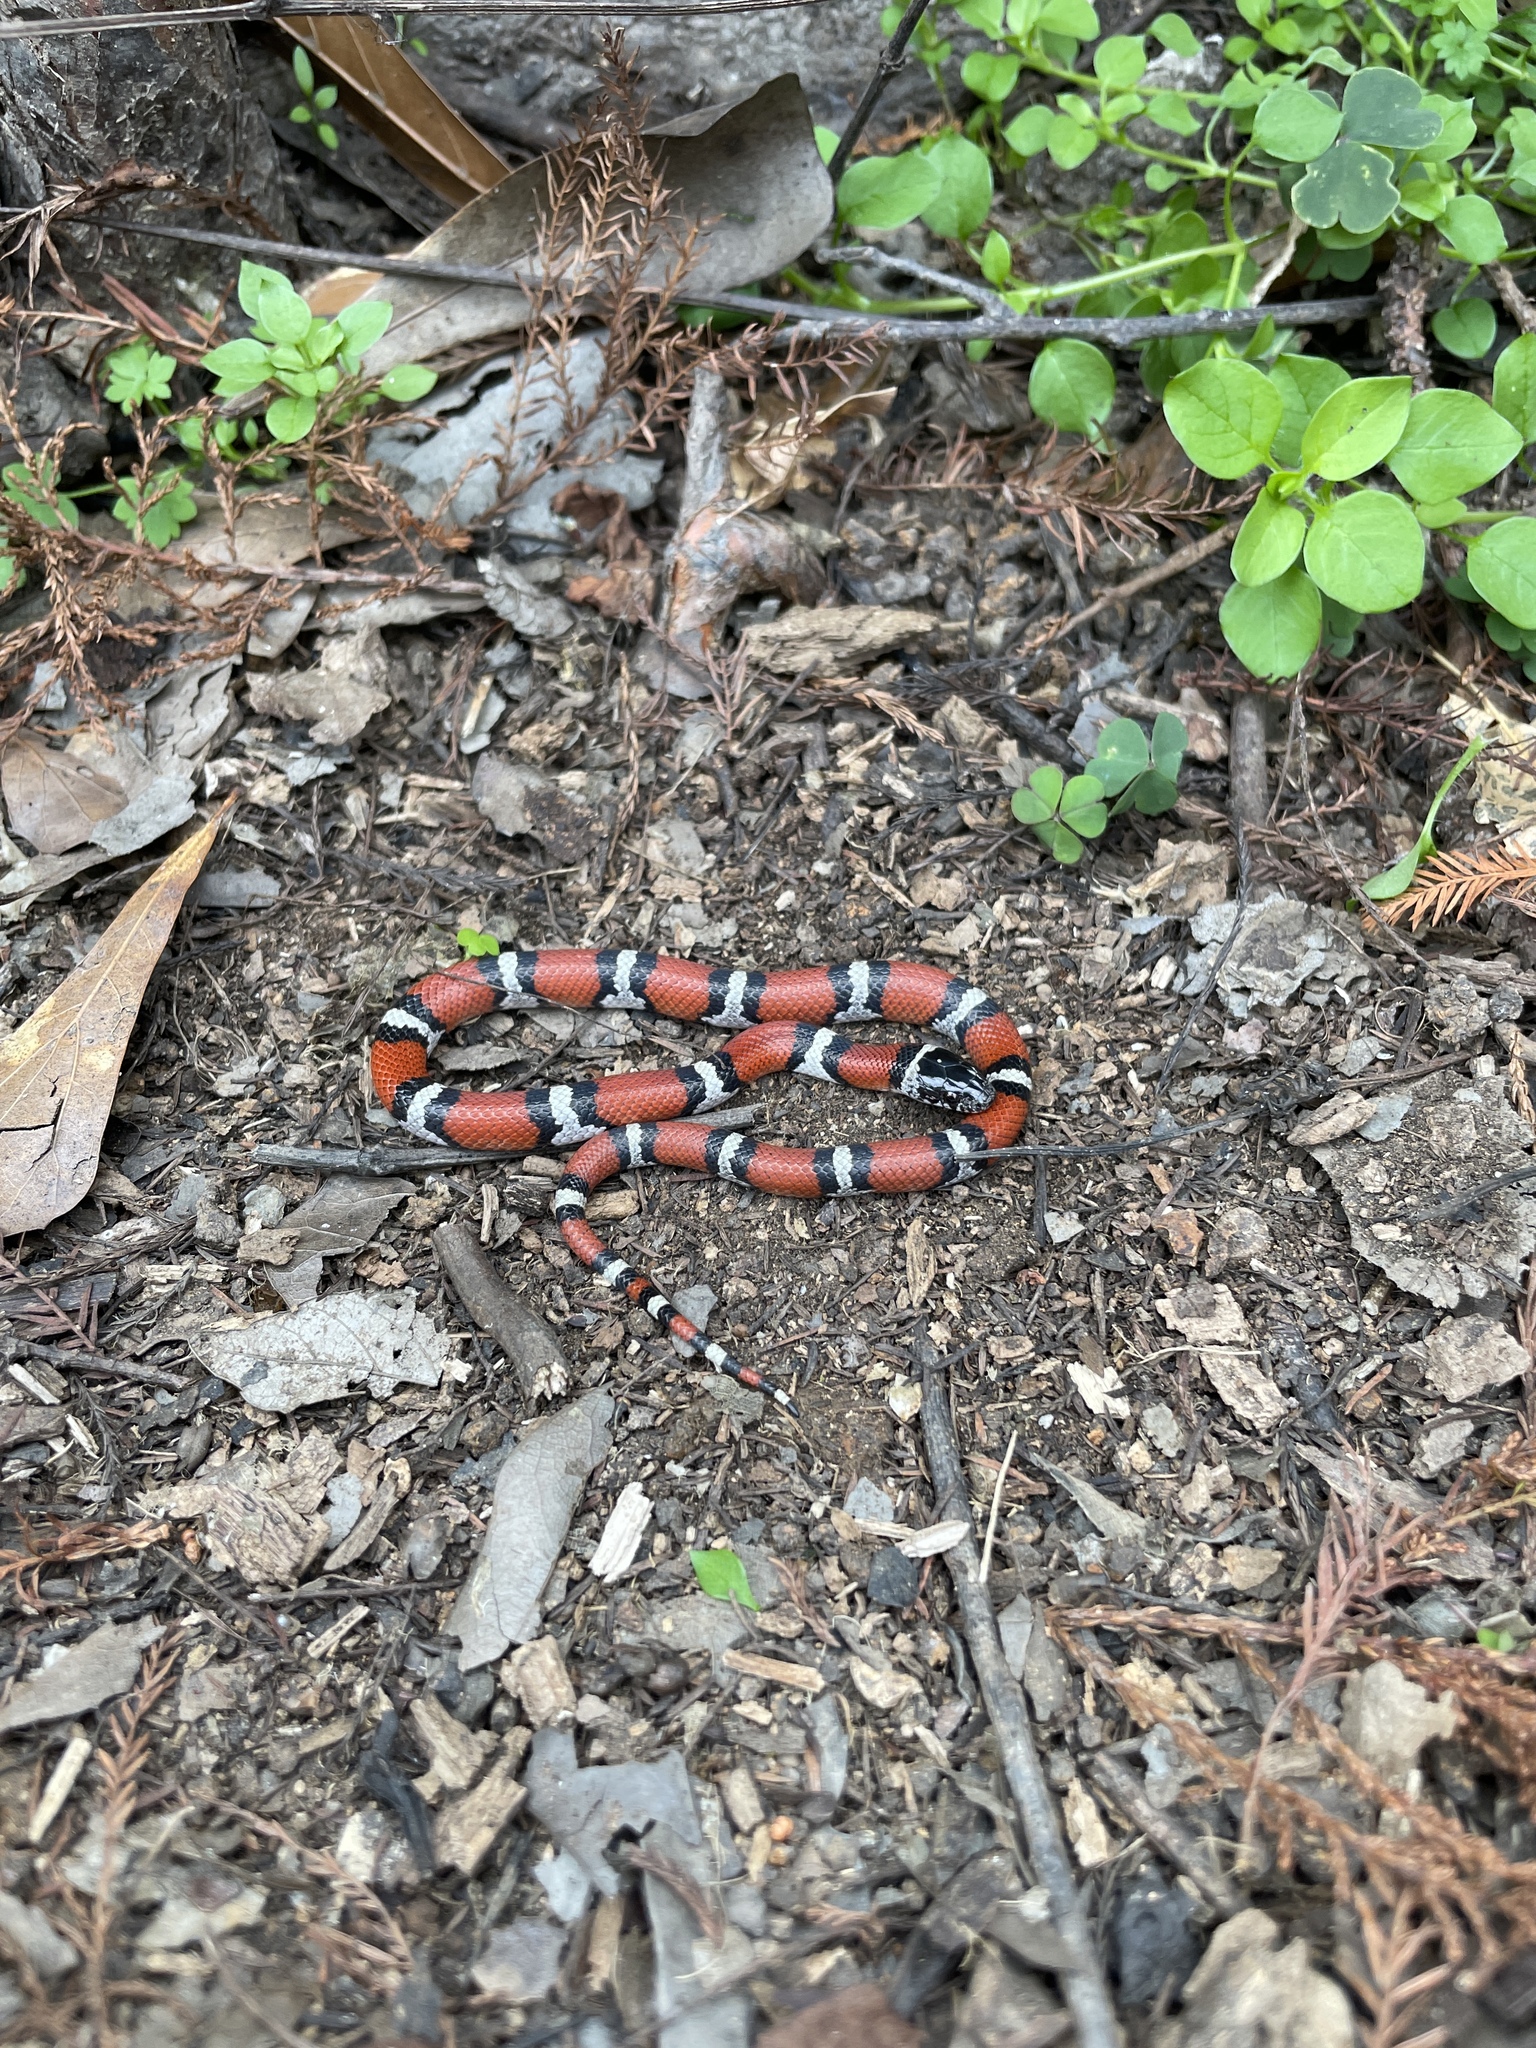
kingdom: Animalia
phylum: Chordata
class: Squamata
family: Colubridae
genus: Lampropeltis
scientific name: Lampropeltis gentilis
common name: Central plains milksnake
